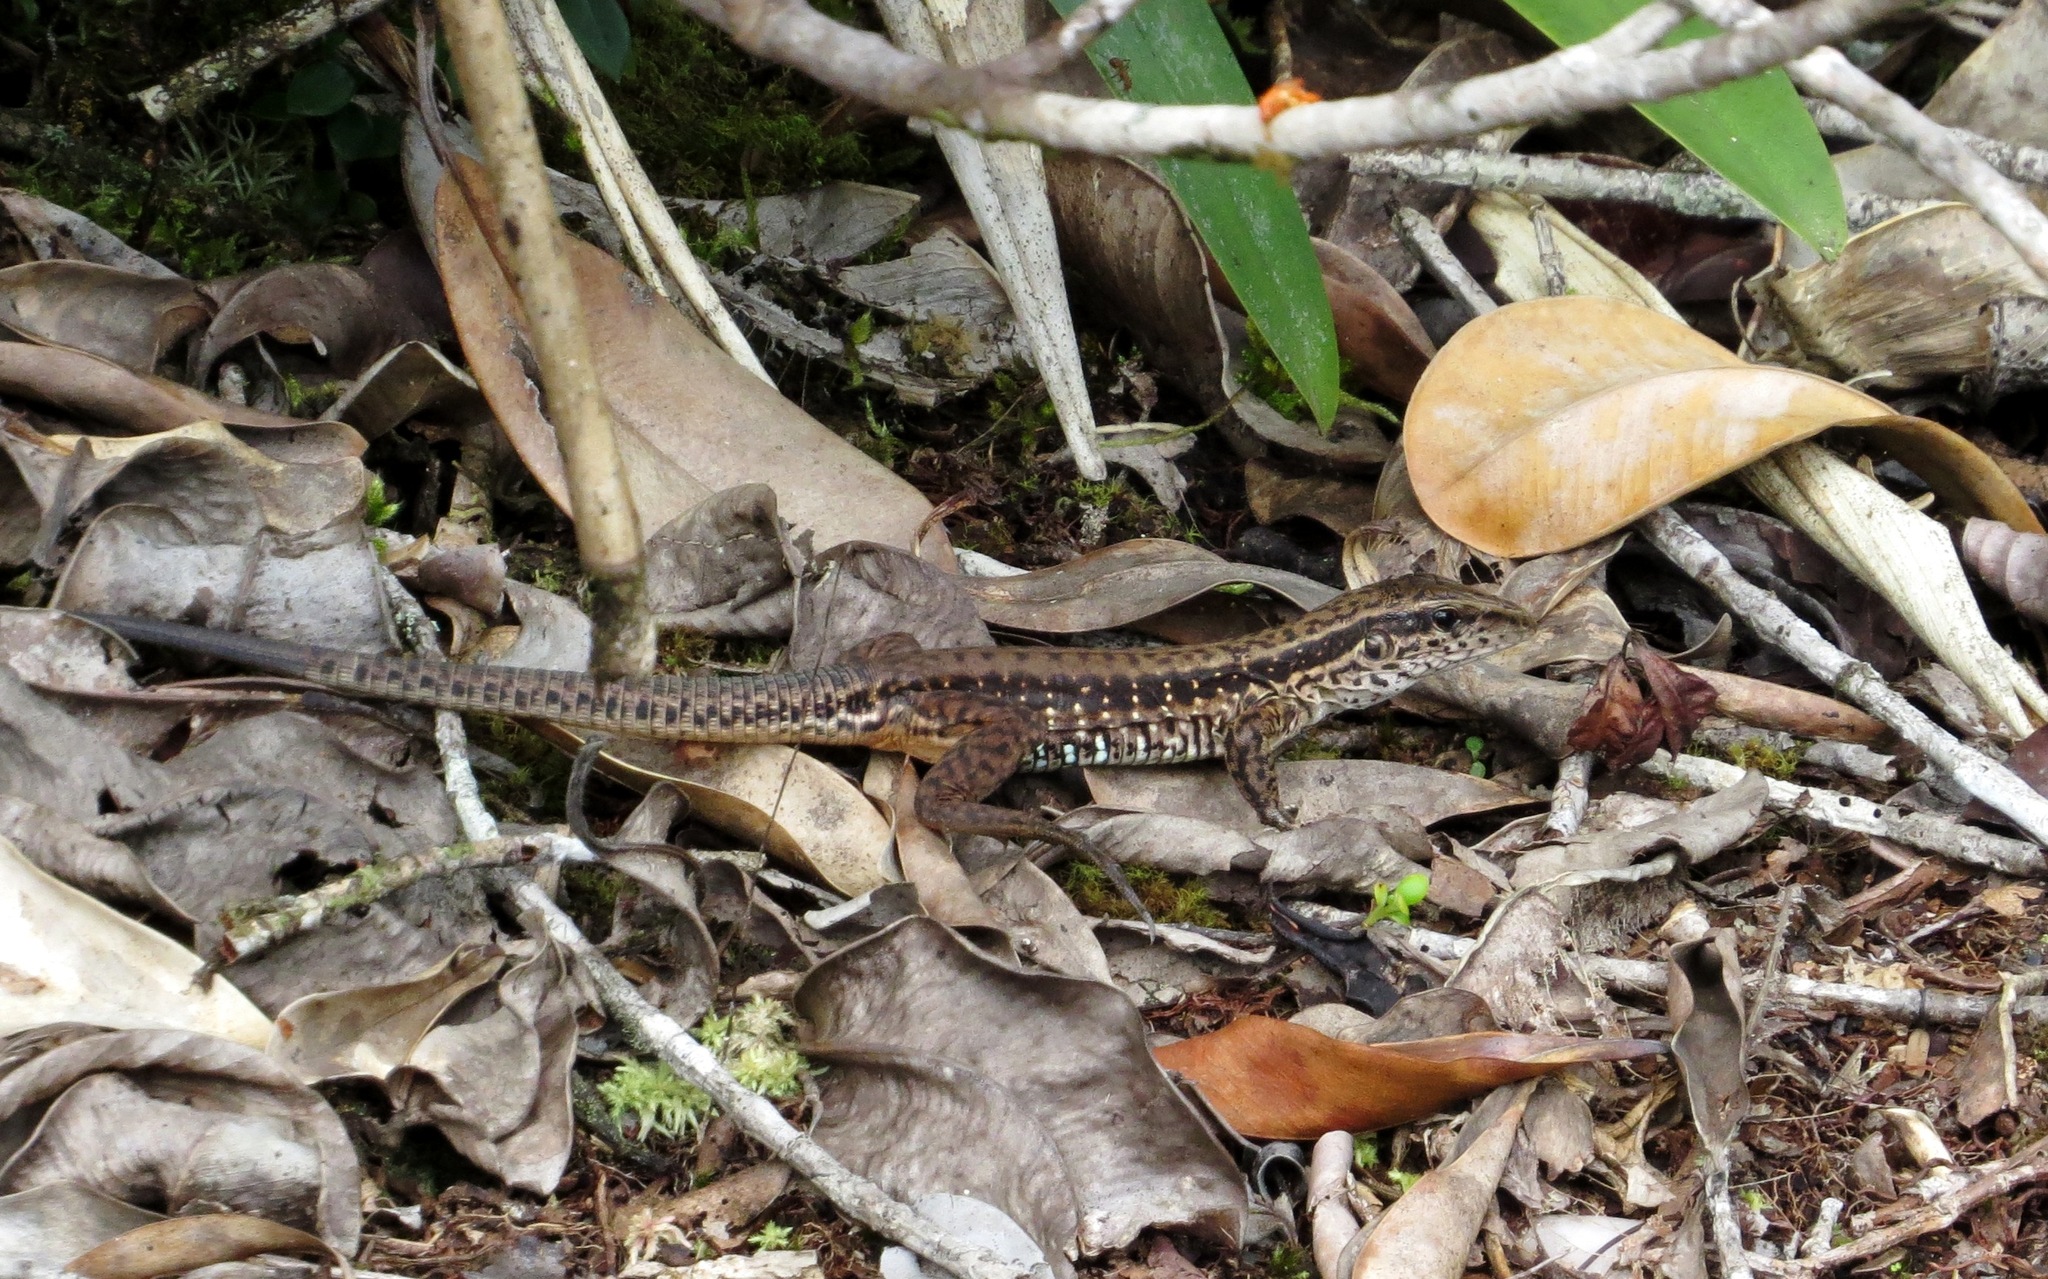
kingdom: Animalia
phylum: Chordata
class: Squamata
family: Teiidae
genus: Ameiva
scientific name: Ameiva ameiva
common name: Giant ameiva
